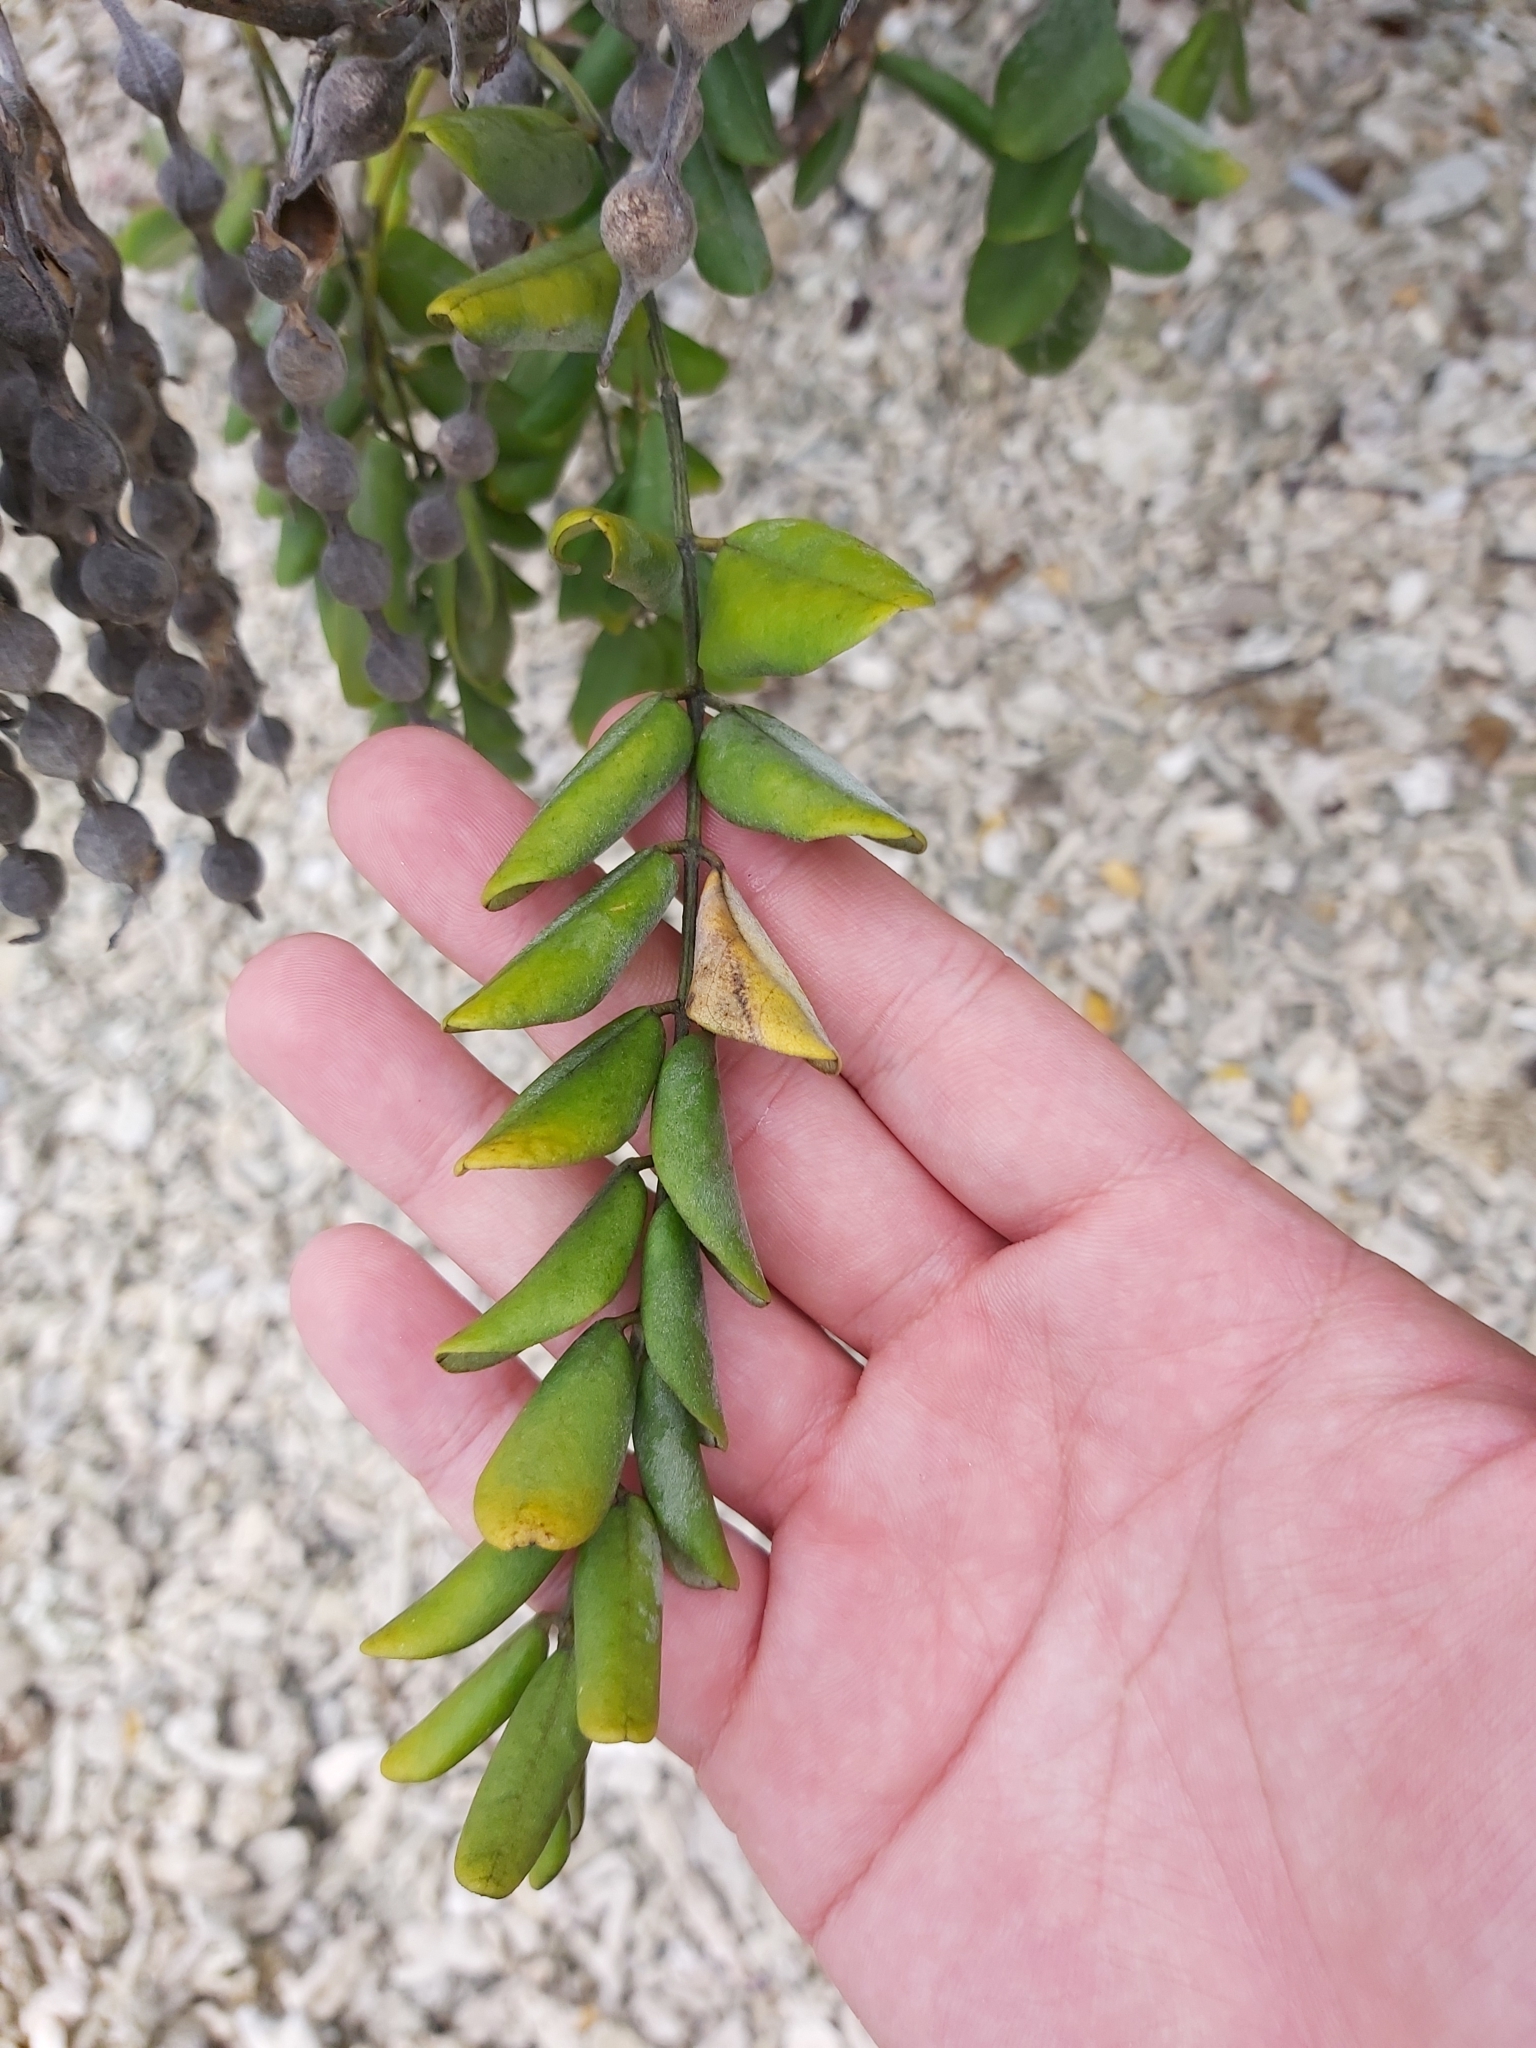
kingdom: Plantae
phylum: Tracheophyta
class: Magnoliopsida
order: Fabales
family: Fabaceae
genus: Sophora
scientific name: Sophora tomentosa
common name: Yellow necklacepod
